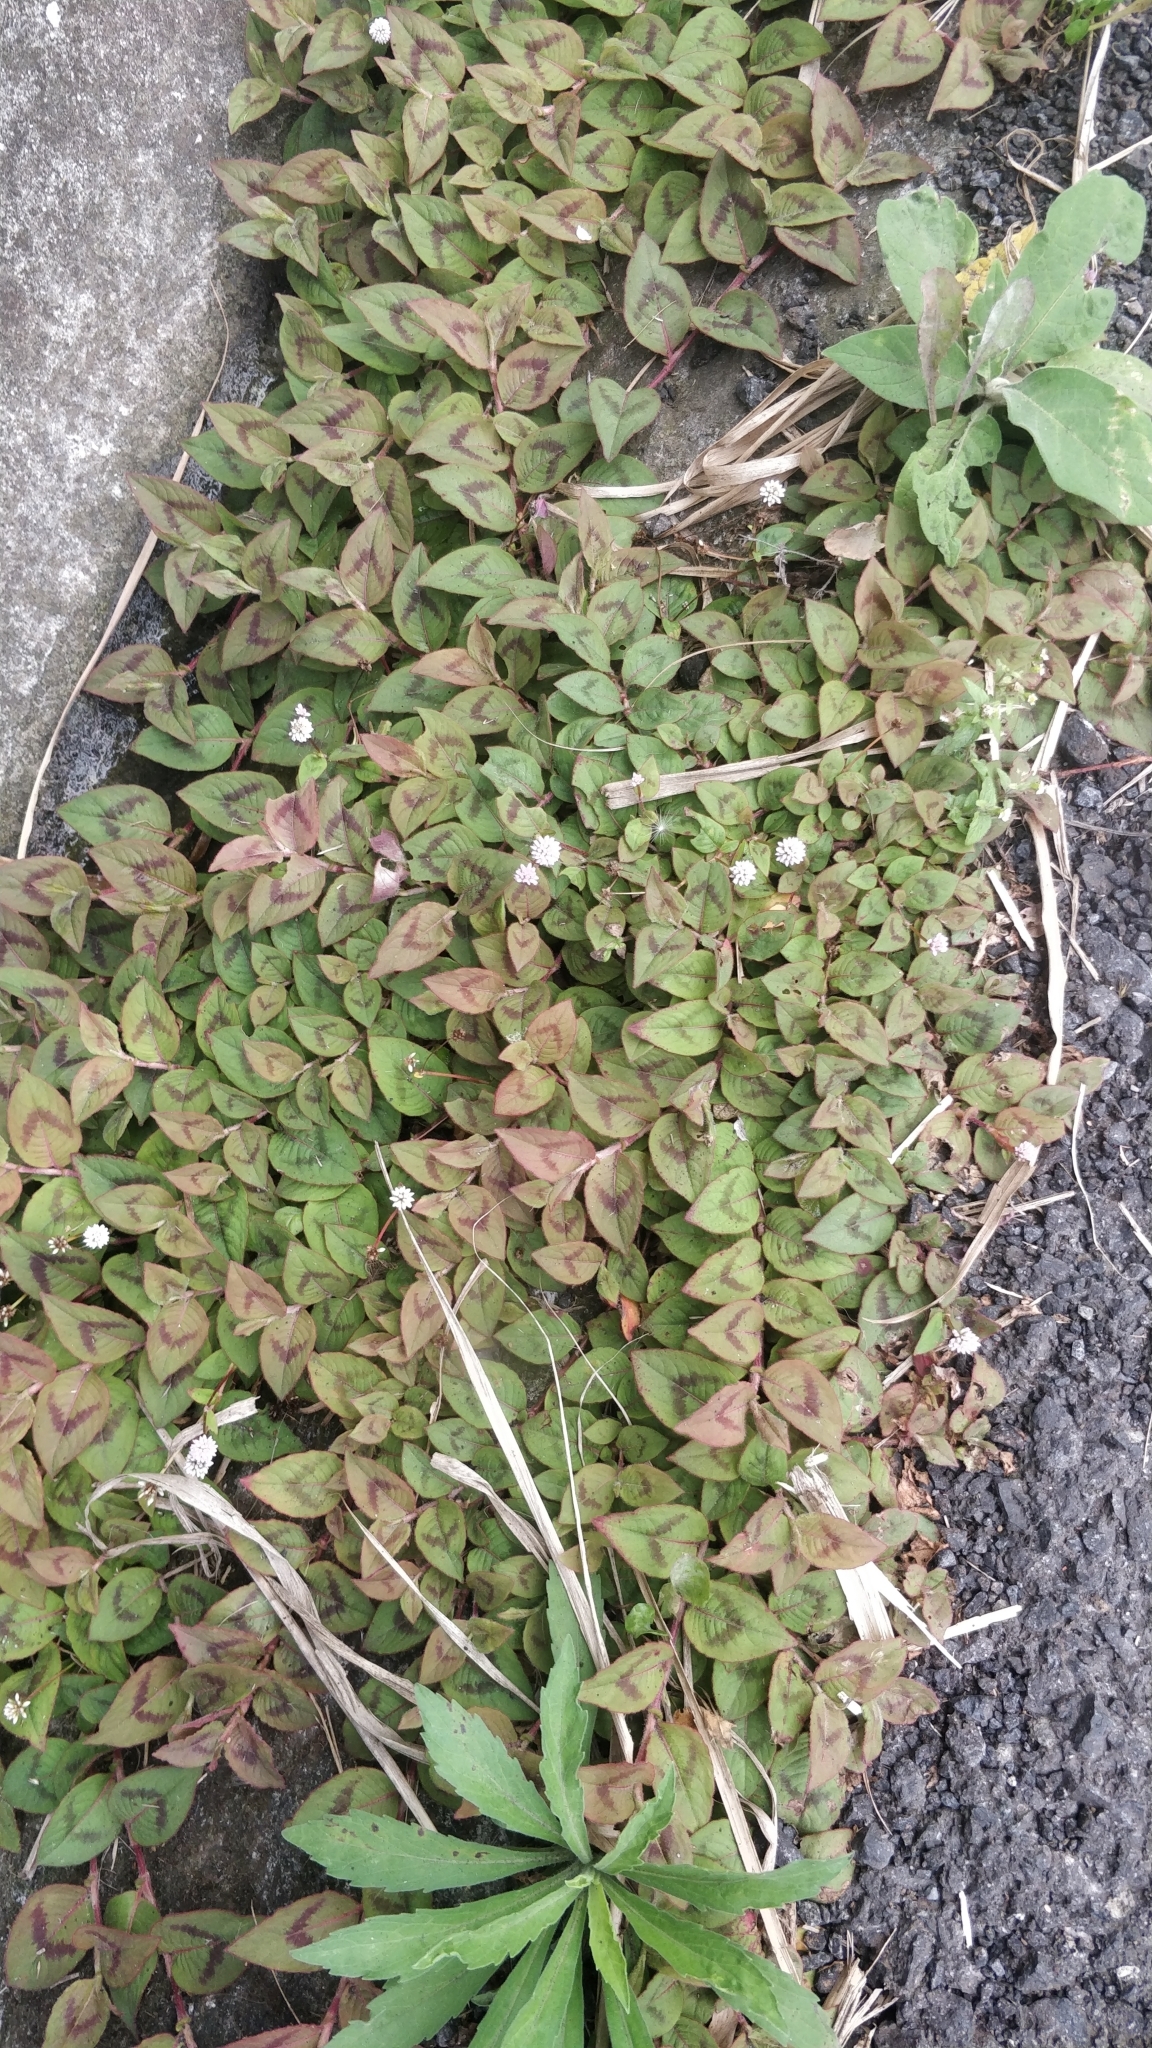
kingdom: Plantae
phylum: Tracheophyta
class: Magnoliopsida
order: Caryophyllales
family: Polygonaceae
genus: Persicaria
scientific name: Persicaria capitata
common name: Pinkhead smartweed
